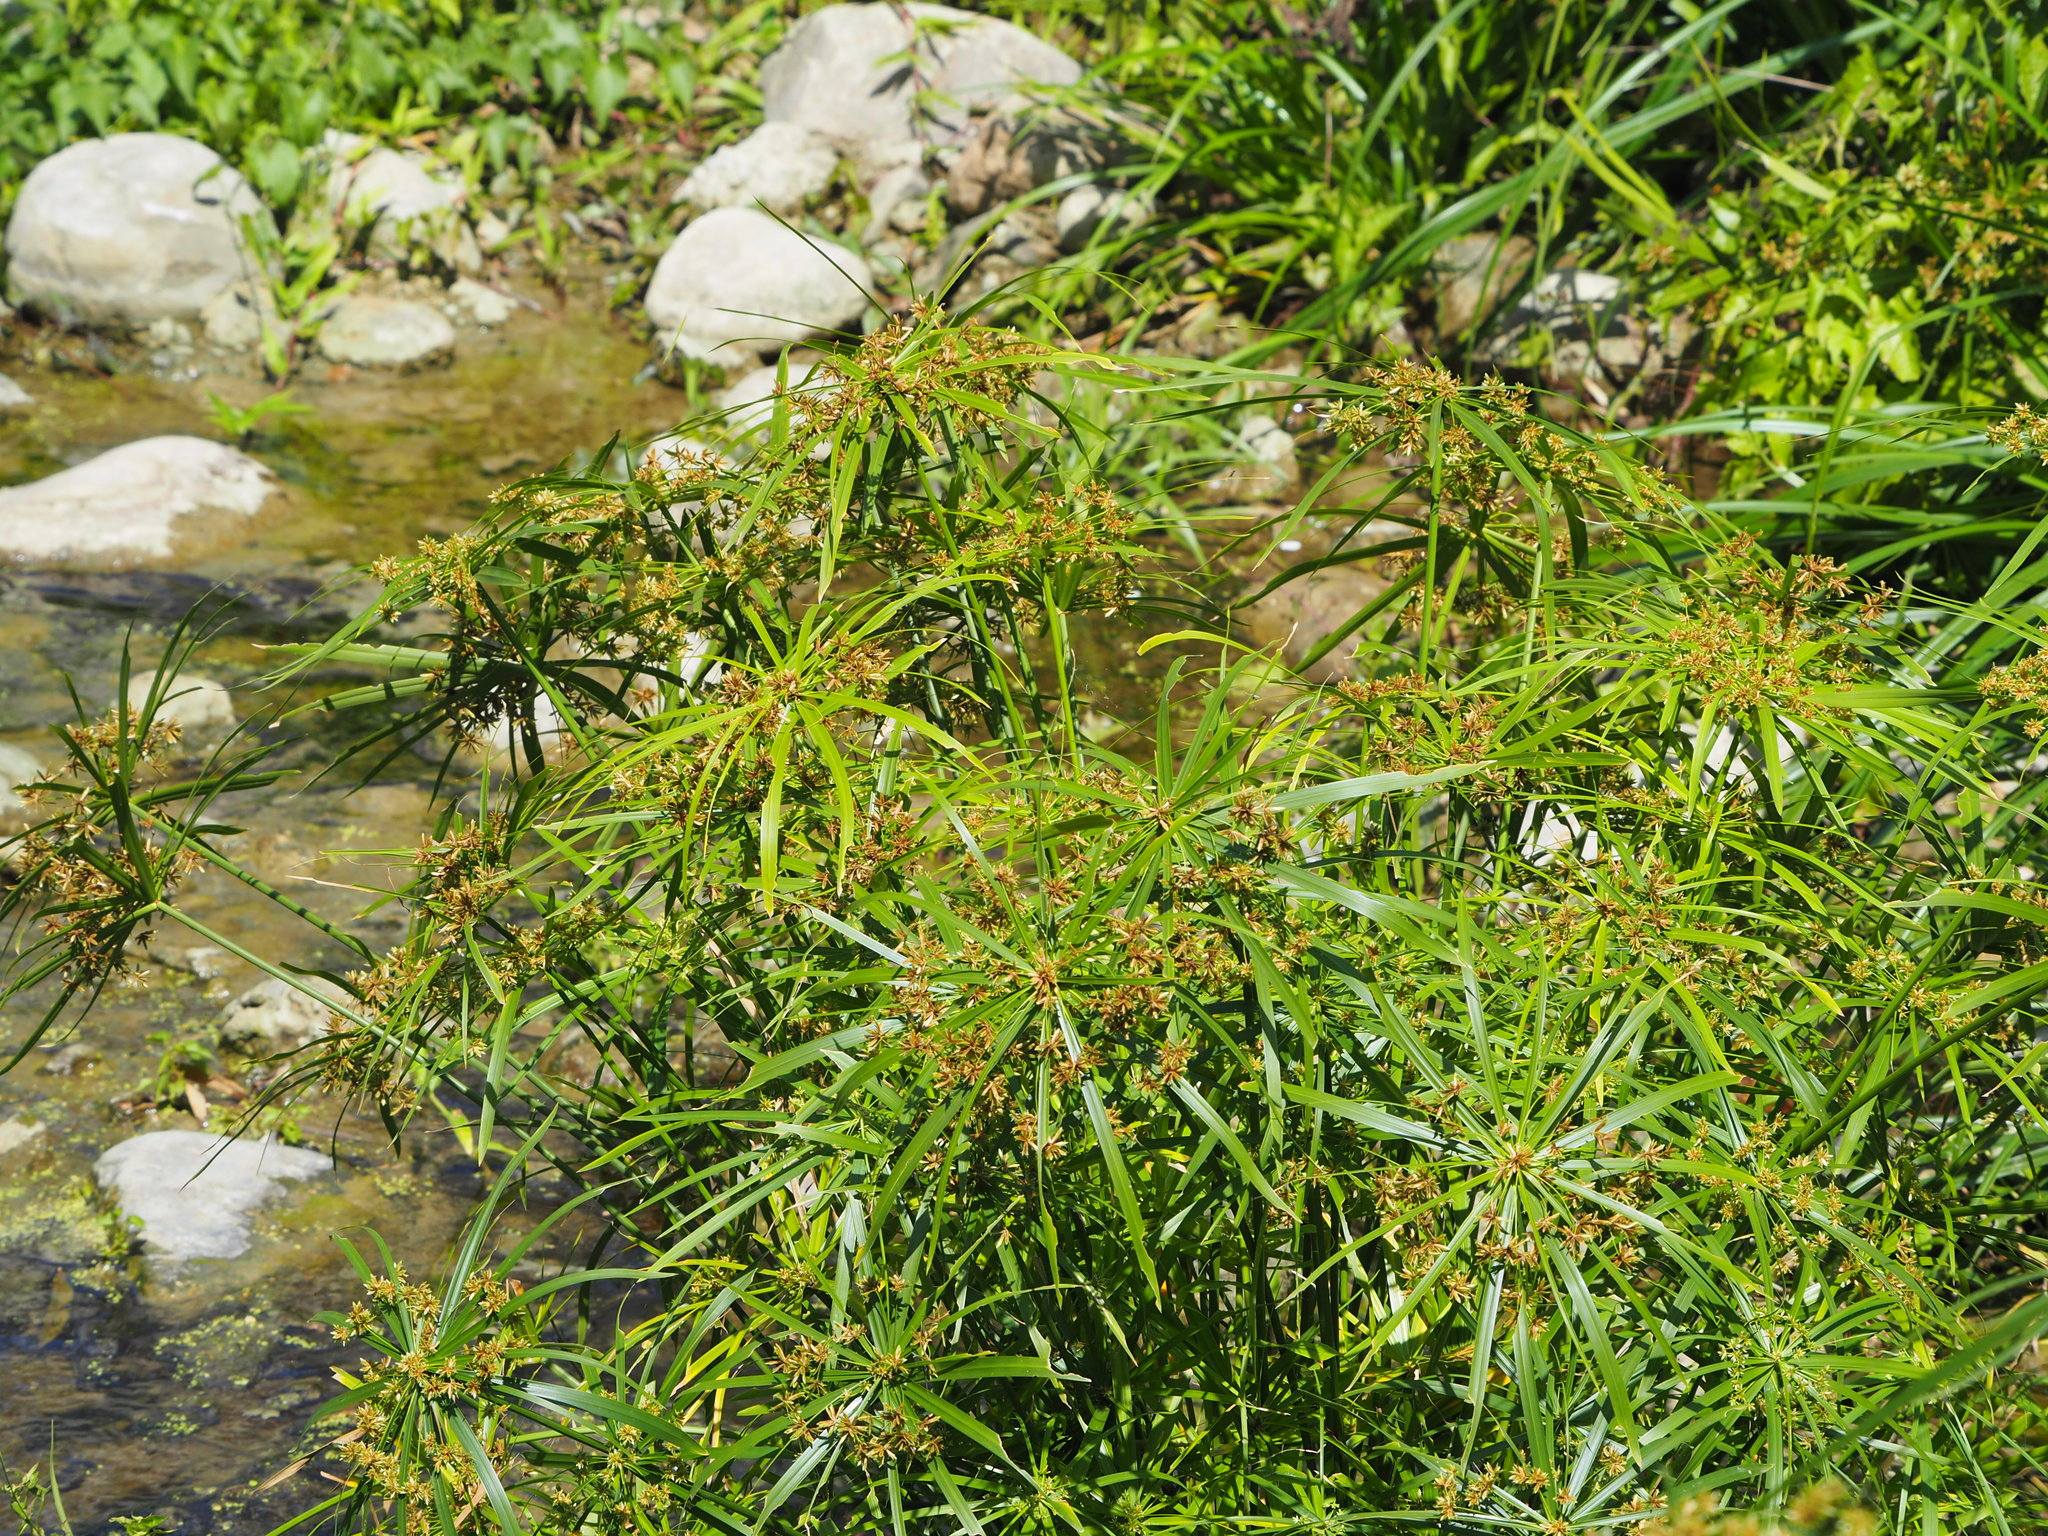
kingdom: Plantae
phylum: Tracheophyta
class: Liliopsida
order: Poales
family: Cyperaceae
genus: Cyperus
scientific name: Cyperus alternifolius
